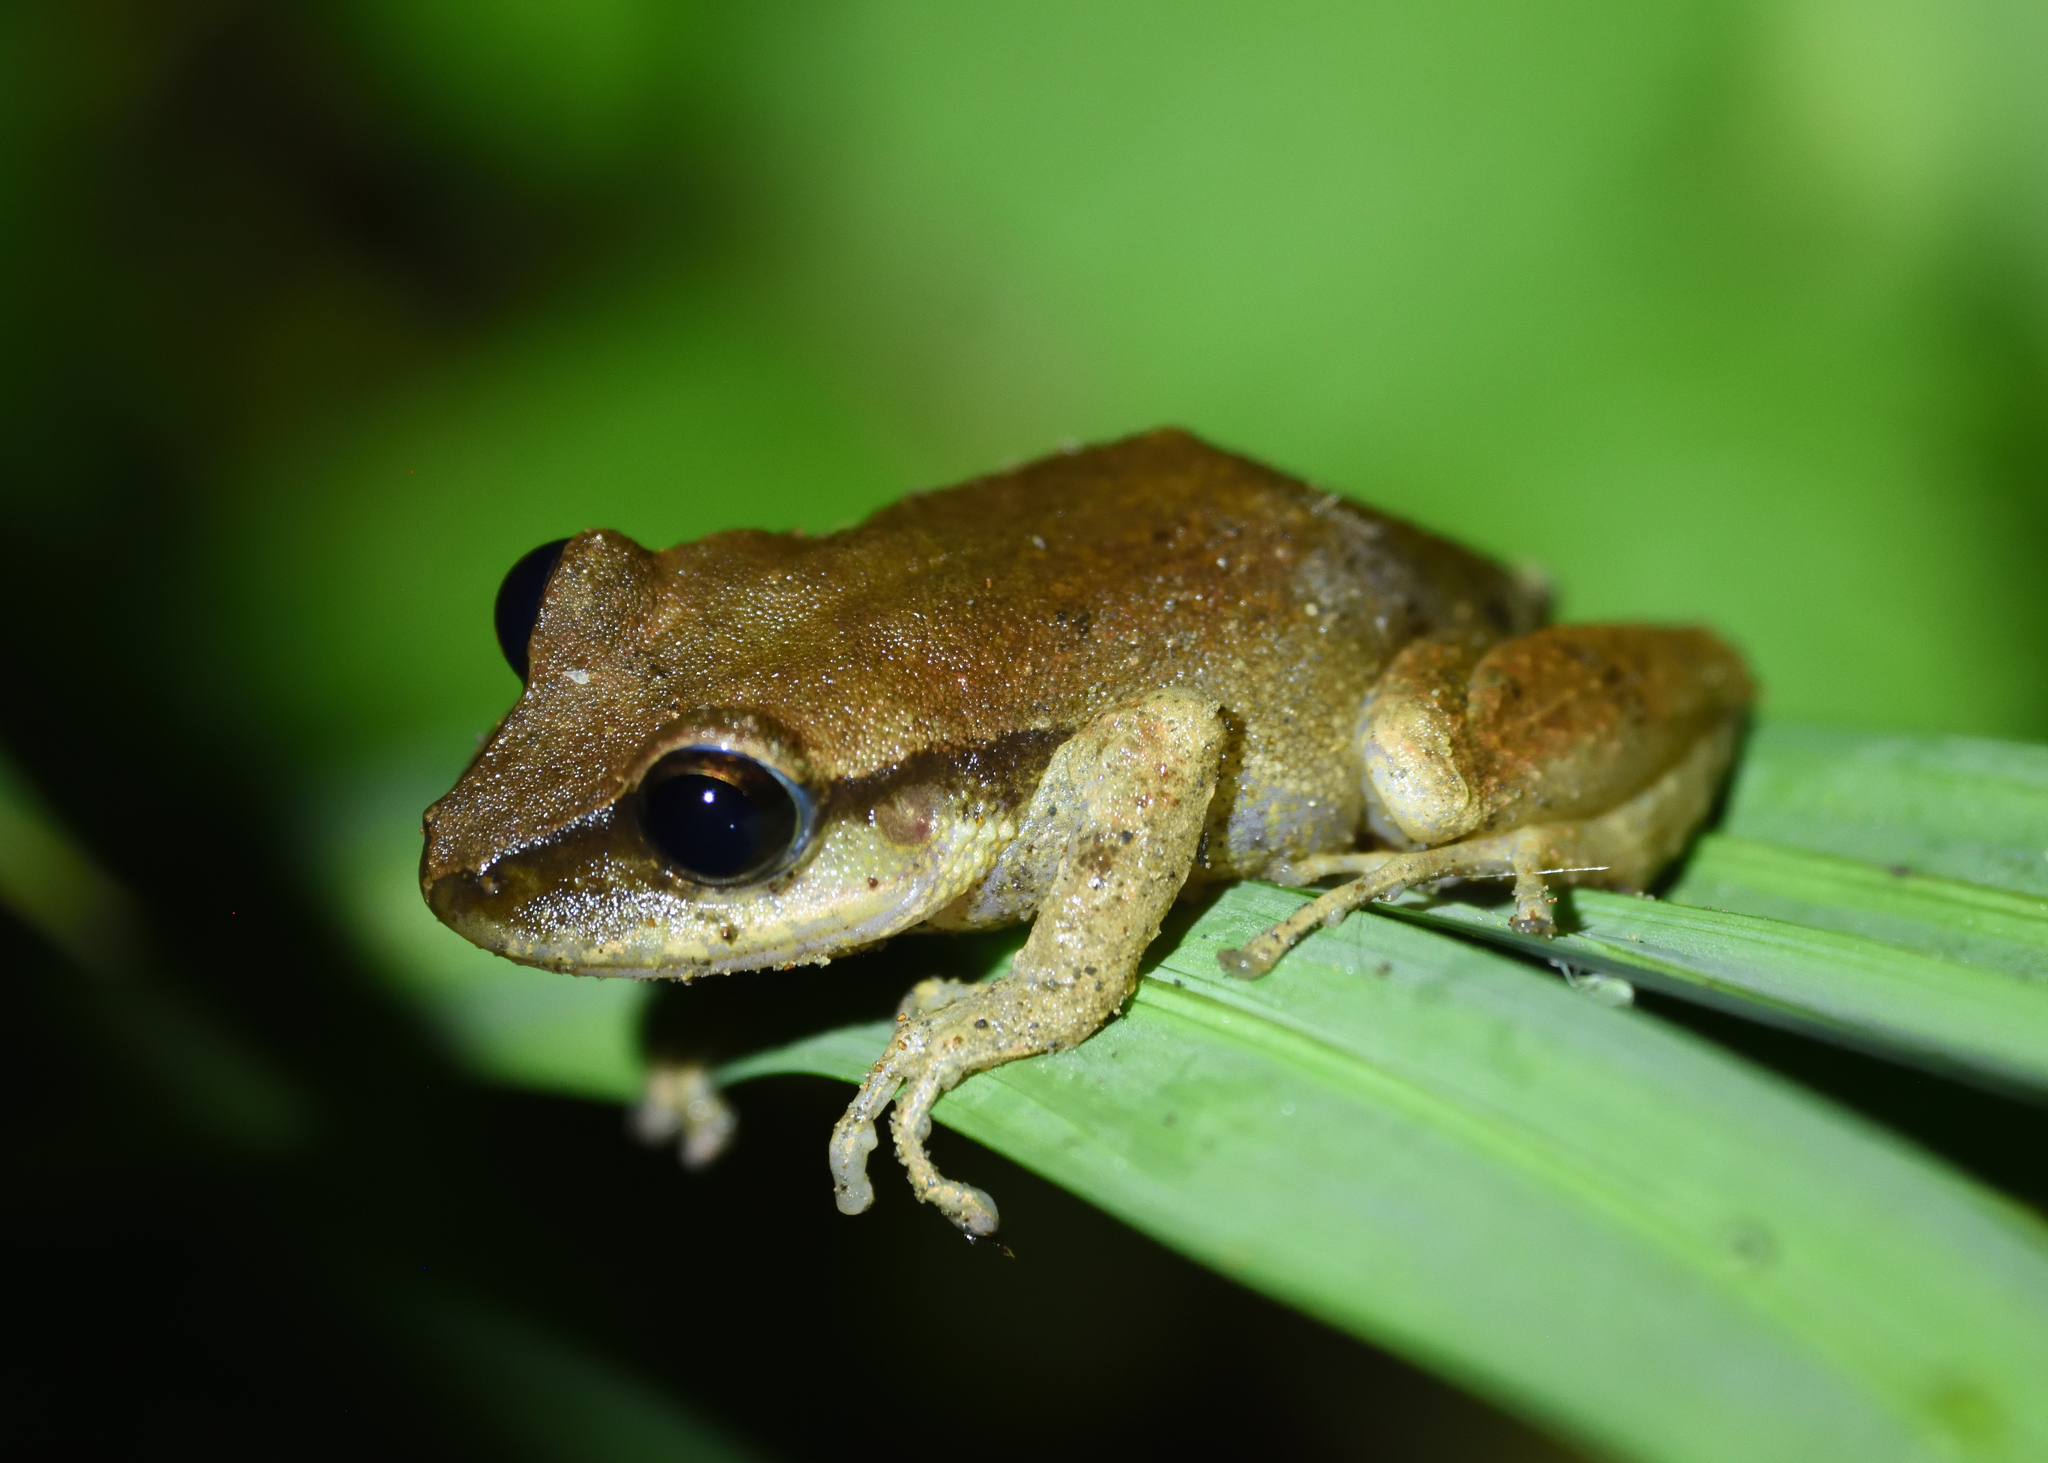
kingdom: Animalia
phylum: Chordata
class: Amphibia
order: Anura
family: Craugastoridae
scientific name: Craugastoridae
